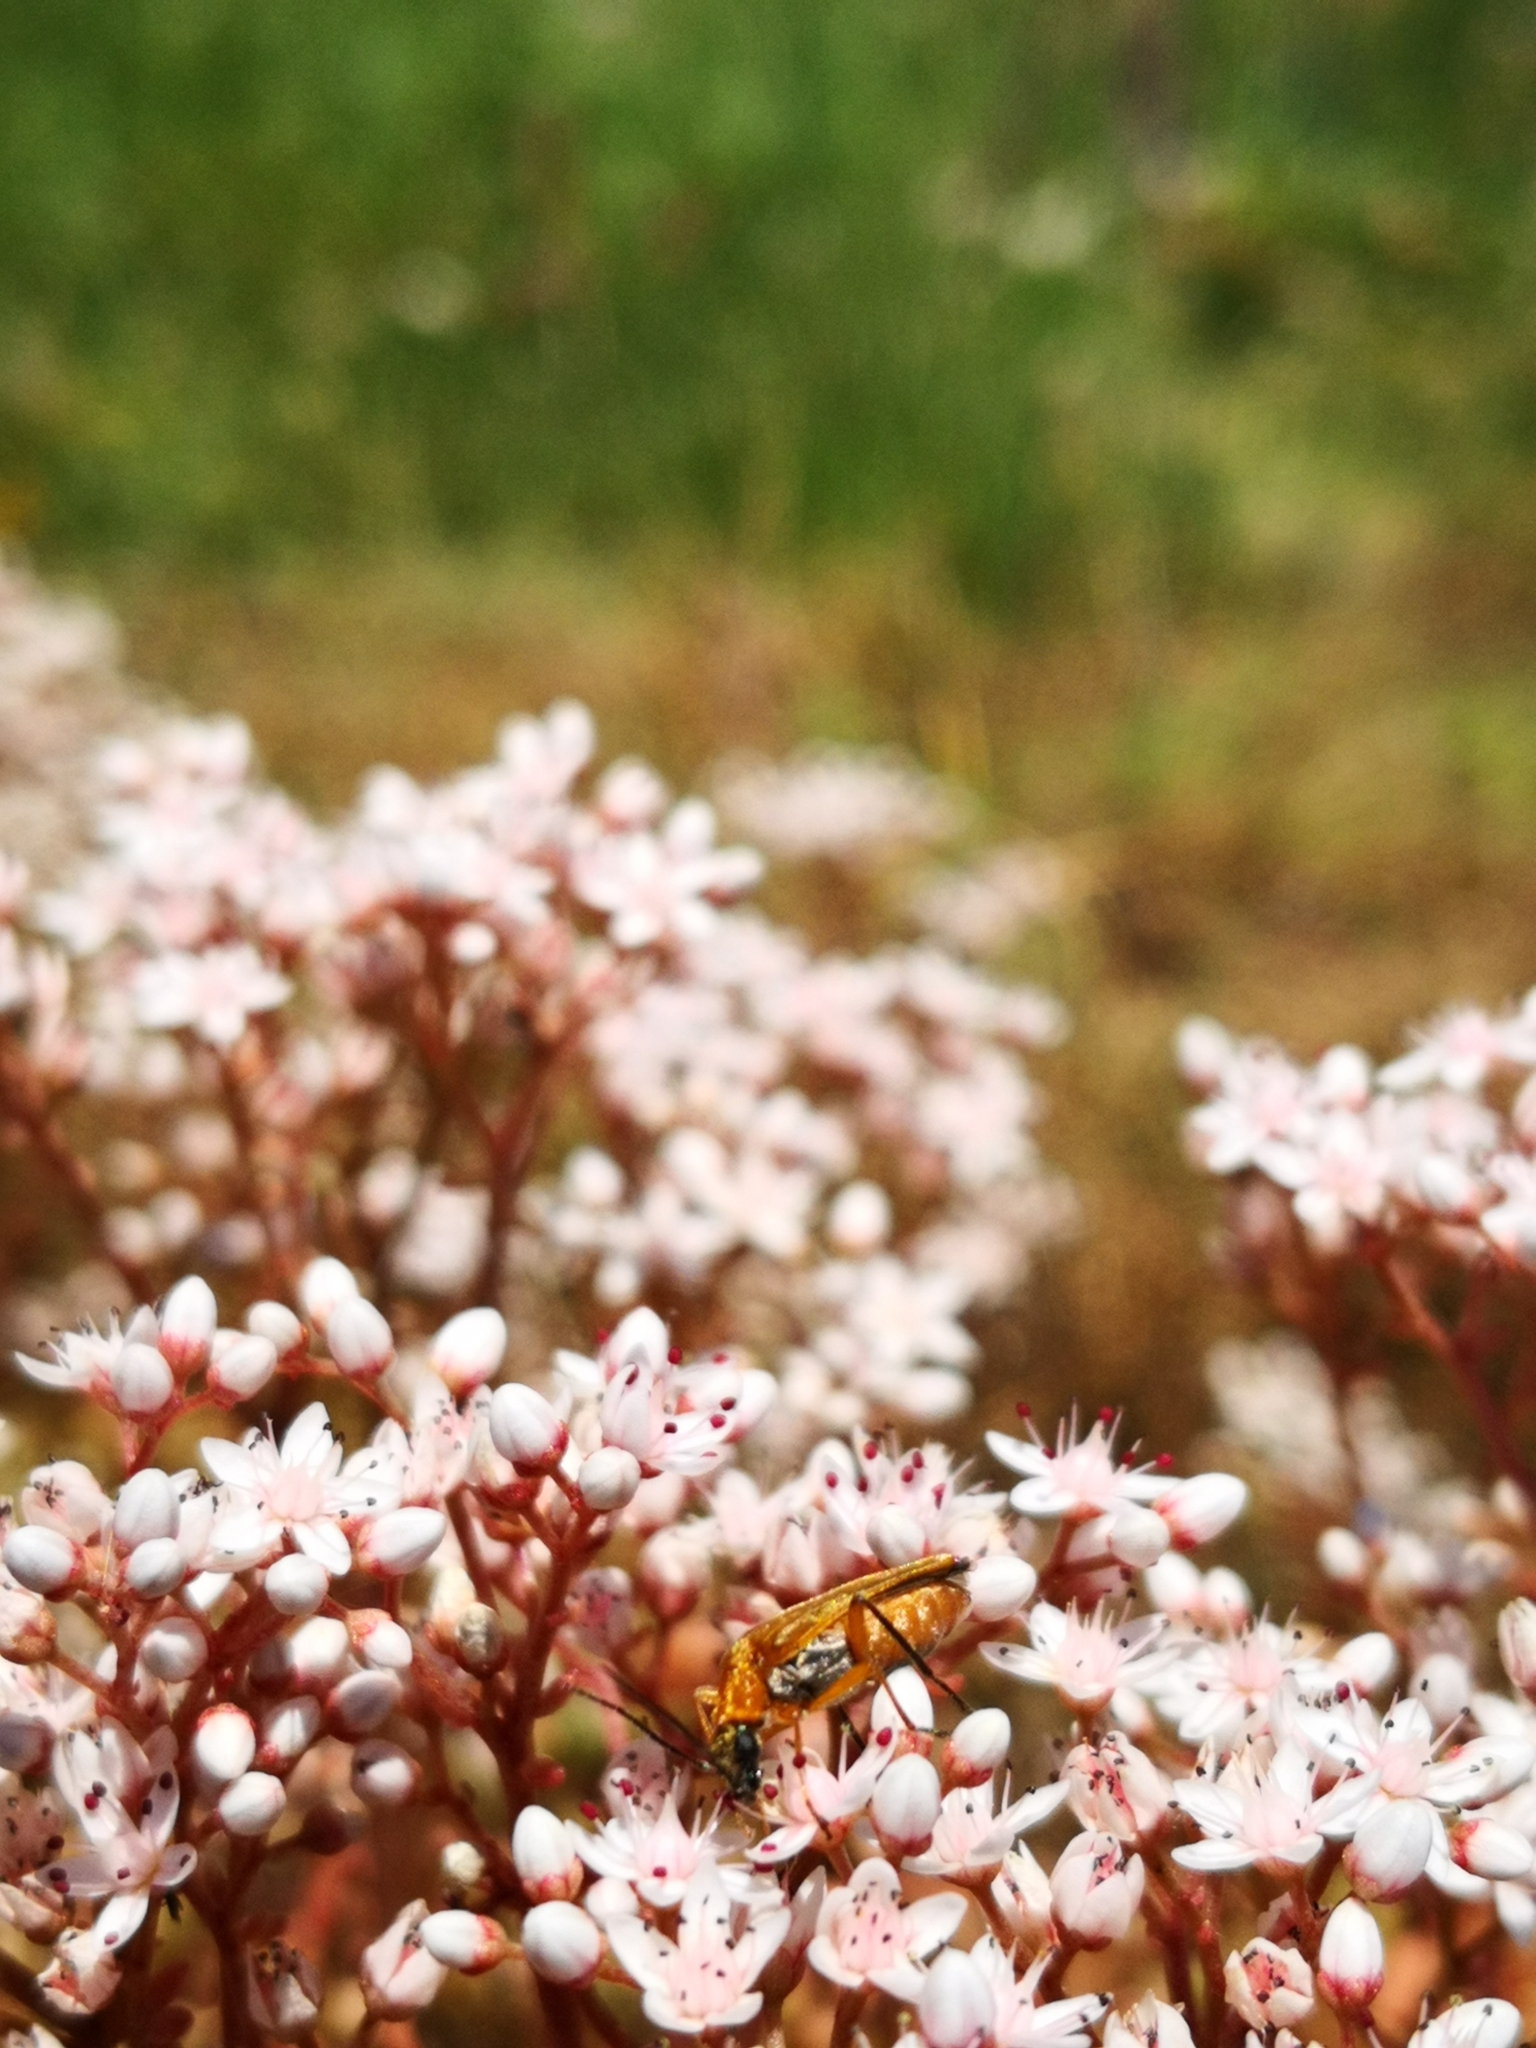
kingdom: Animalia
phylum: Arthropoda
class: Insecta
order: Coleoptera
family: Oedemeridae
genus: Oedemera
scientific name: Oedemera podagrariae
